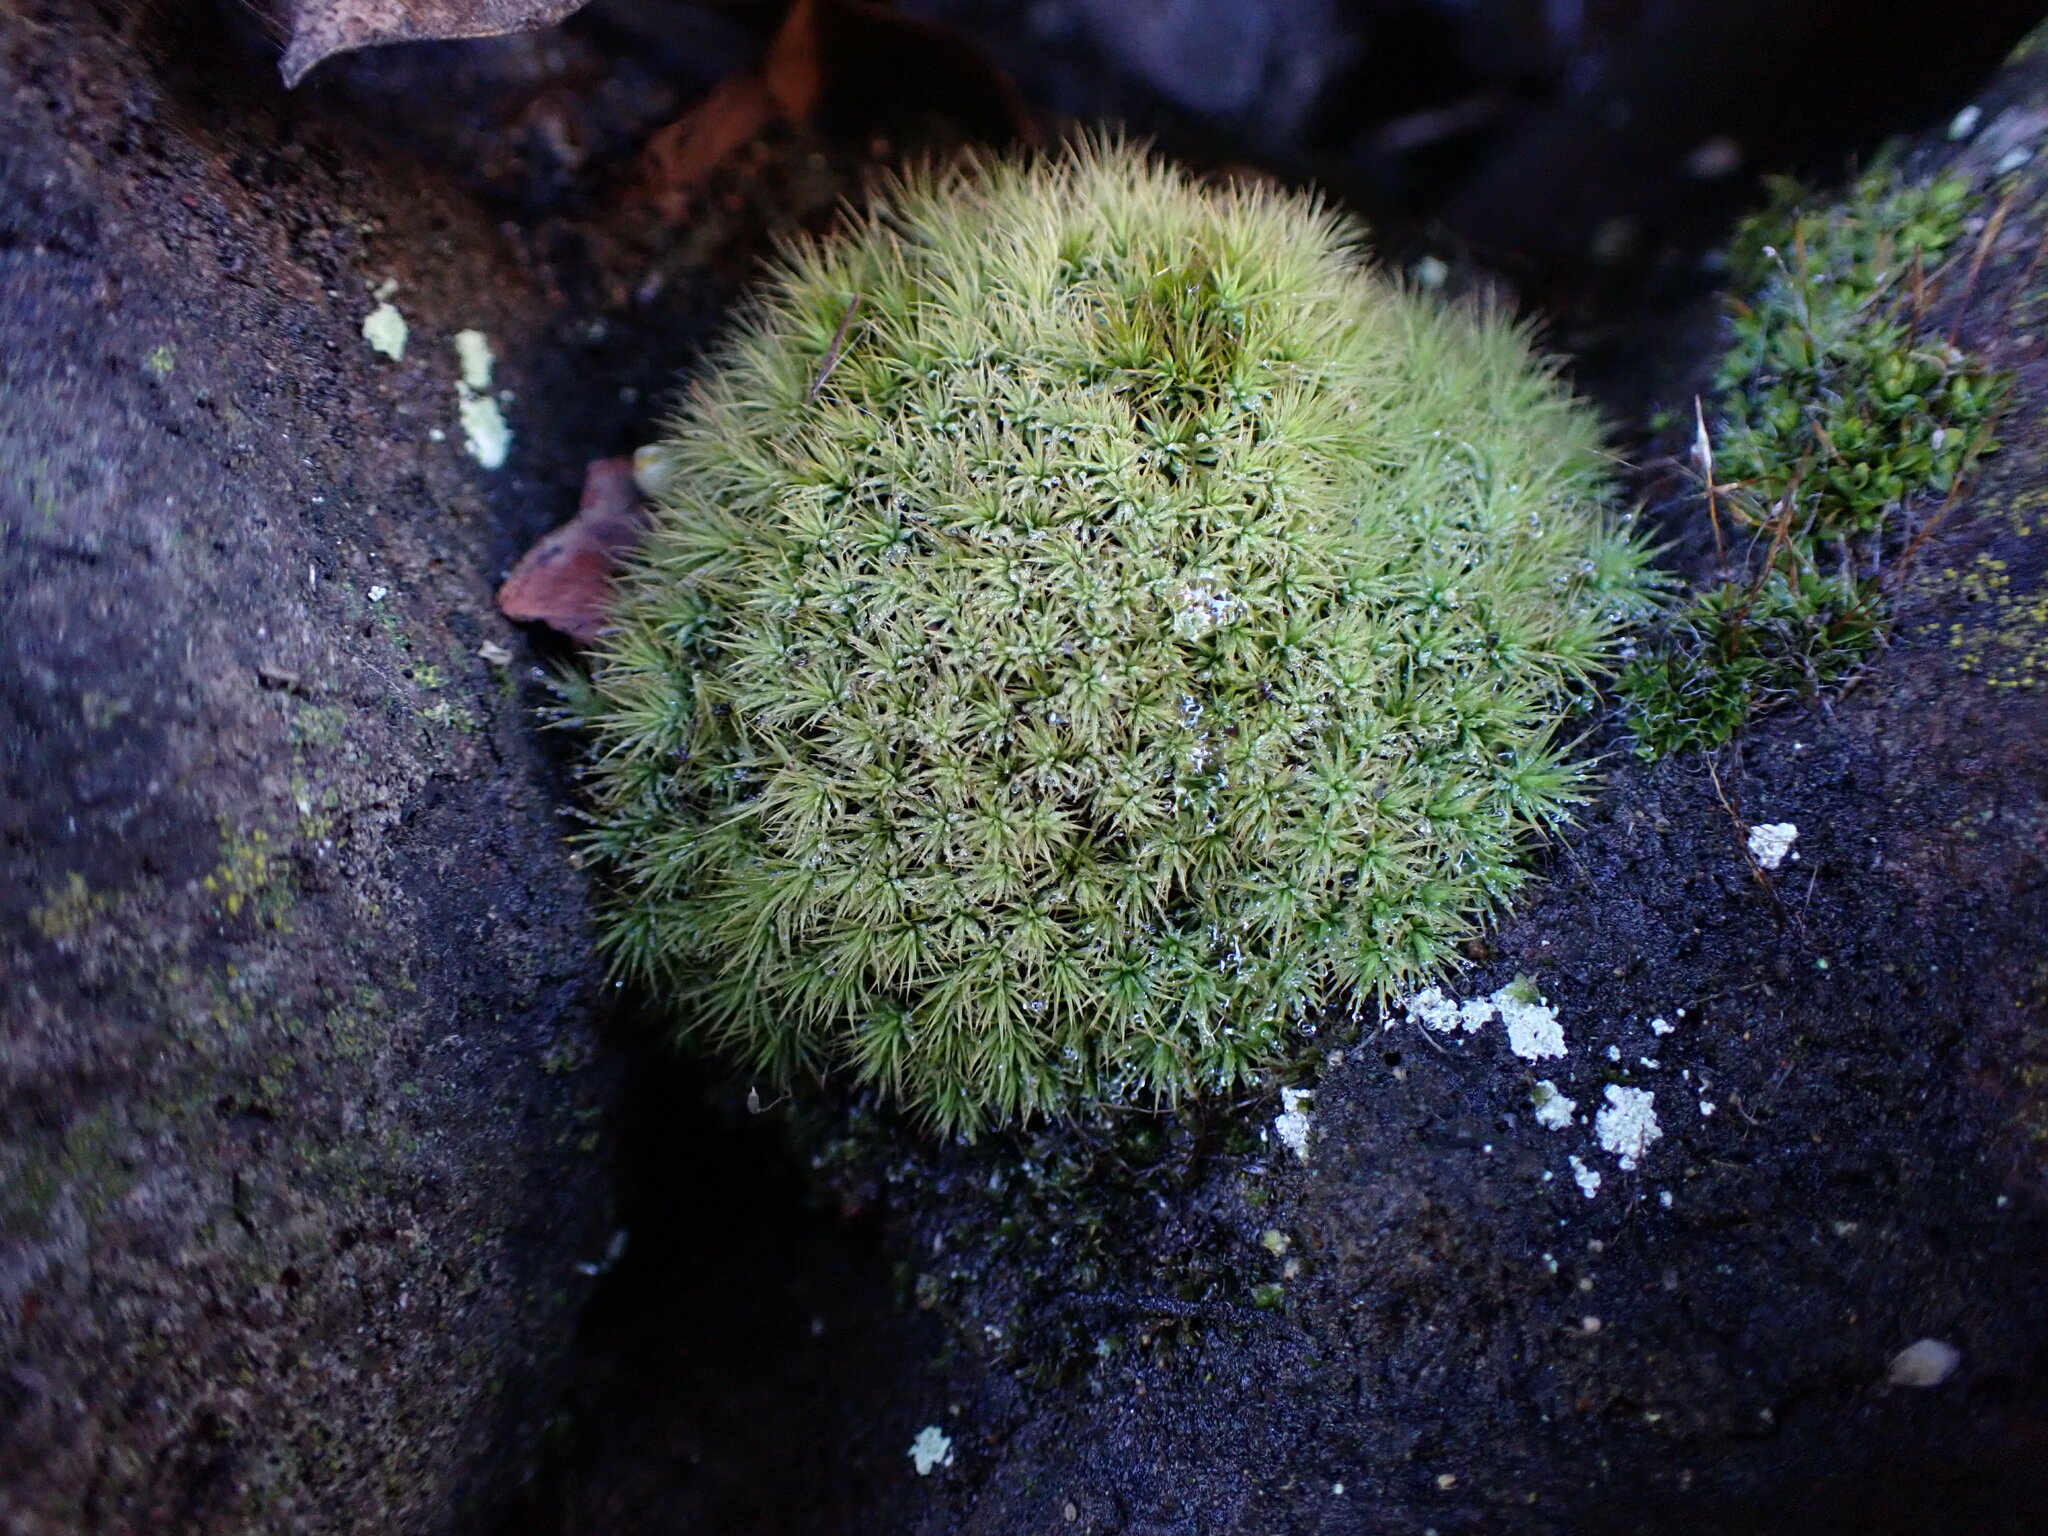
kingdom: Plantae
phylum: Bryophyta
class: Bryopsida
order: Bartramiales
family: Bartramiaceae
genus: Bartramia
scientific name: Bartramia aprica
